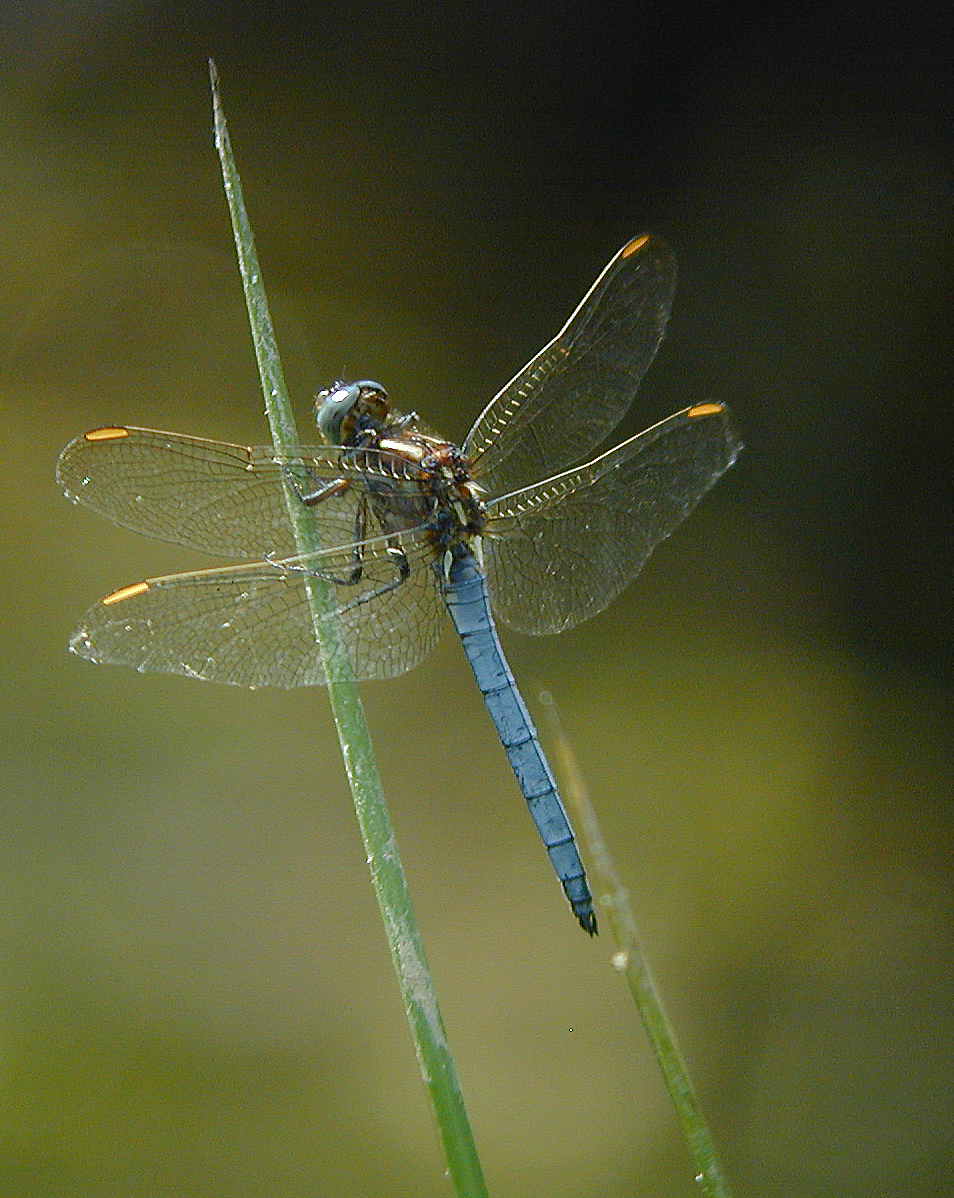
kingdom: Animalia
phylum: Arthropoda
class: Insecta
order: Odonata
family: Libellulidae
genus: Orthetrum
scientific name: Orthetrum coerulescens
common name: Keeled skimmer
